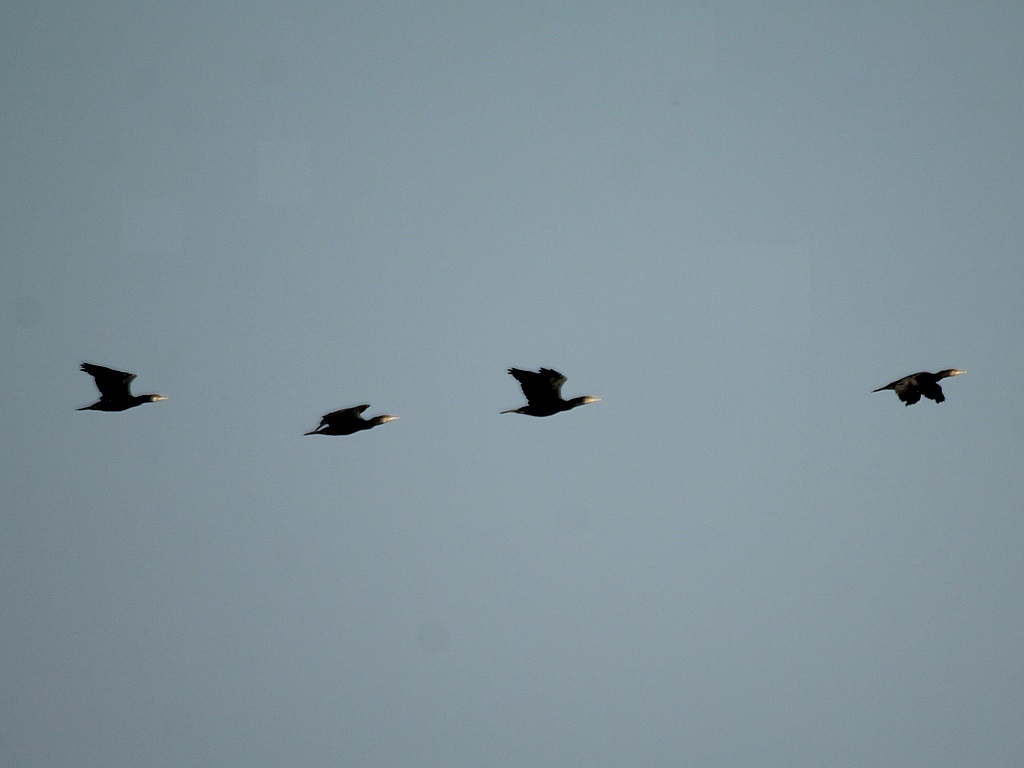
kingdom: Animalia
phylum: Chordata
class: Aves
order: Suliformes
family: Phalacrocoracidae
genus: Phalacrocorax
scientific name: Phalacrocorax carbo
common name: Great cormorant
